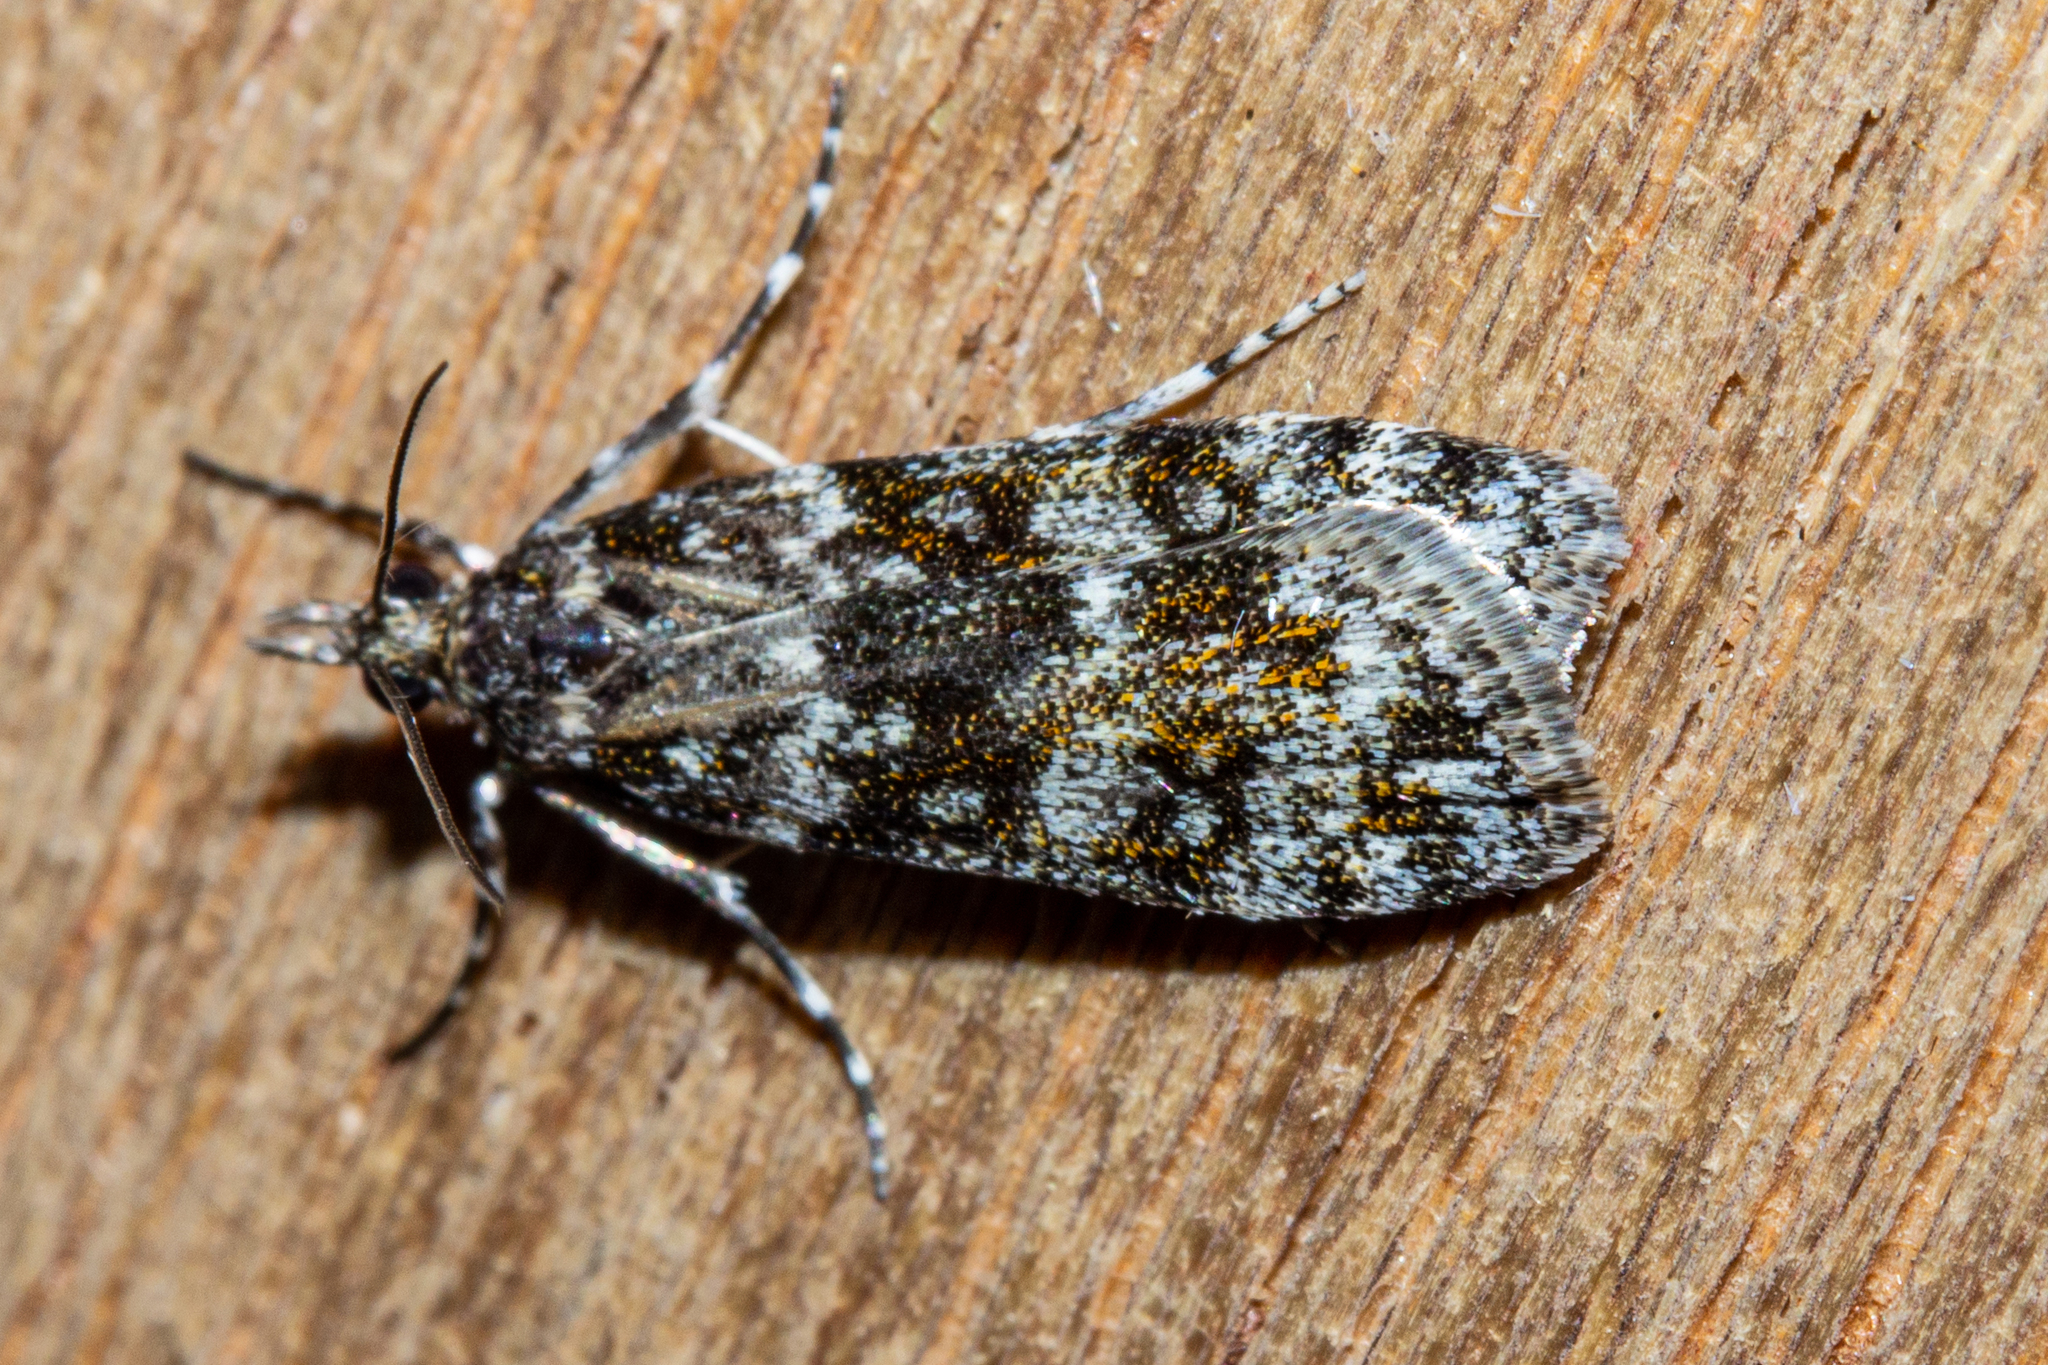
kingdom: Animalia
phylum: Arthropoda
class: Insecta
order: Lepidoptera
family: Crambidae
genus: Eudonia
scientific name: Eudonia critica
